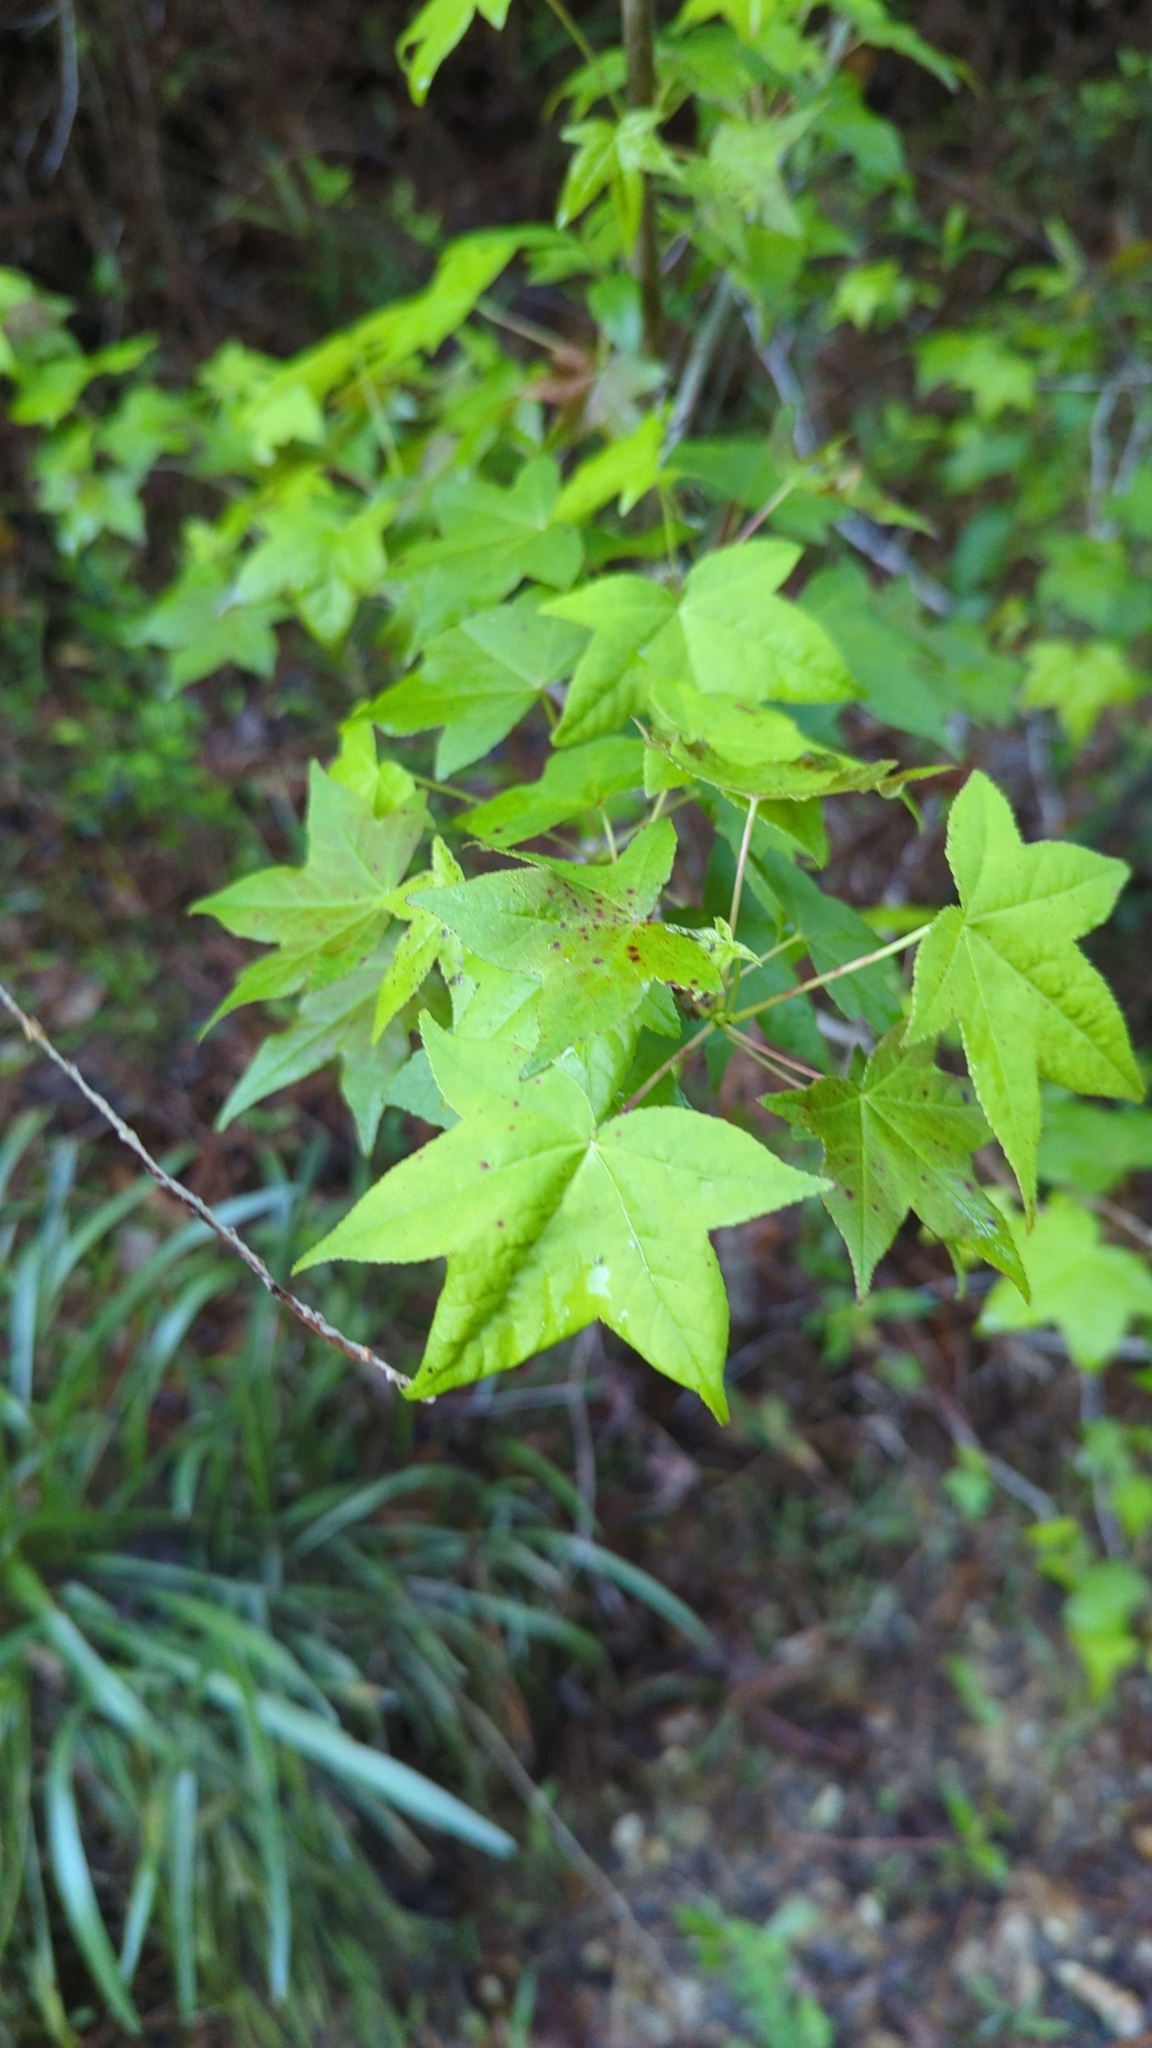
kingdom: Plantae
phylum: Tracheophyta
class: Magnoliopsida
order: Saxifragales
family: Altingiaceae
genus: Liquidambar
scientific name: Liquidambar styraciflua
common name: Sweet gum
